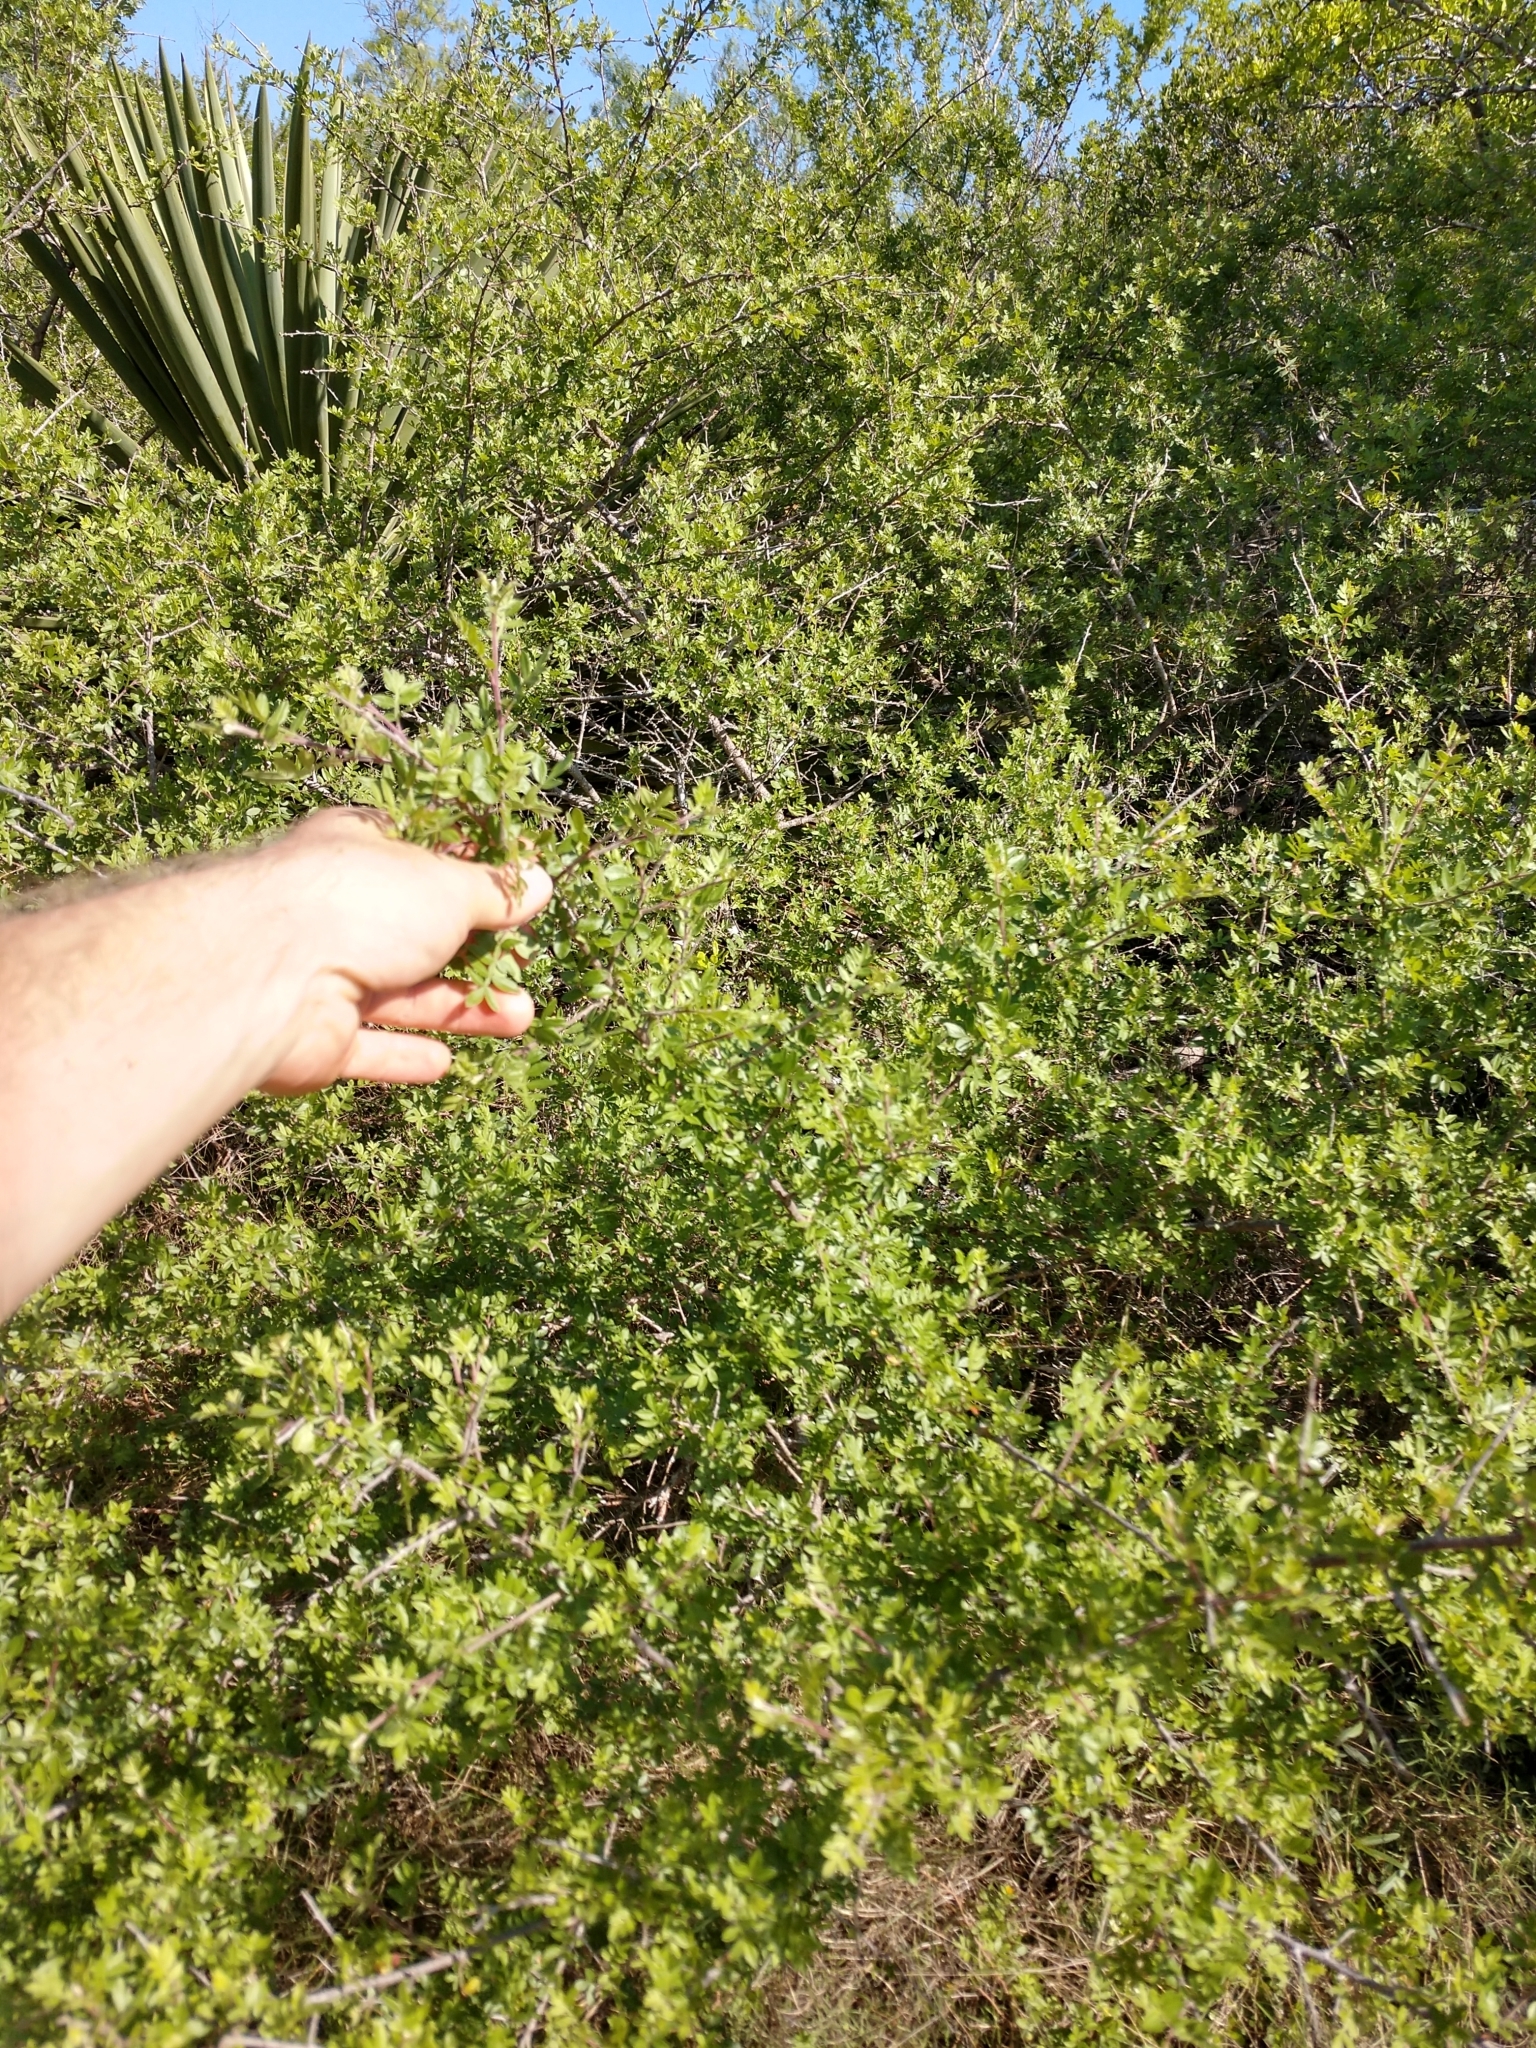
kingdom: Plantae
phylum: Tracheophyta
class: Magnoliopsida
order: Sapindales
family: Anacardiaceae
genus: Rhus
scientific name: Rhus microphylla
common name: Desert sumac
